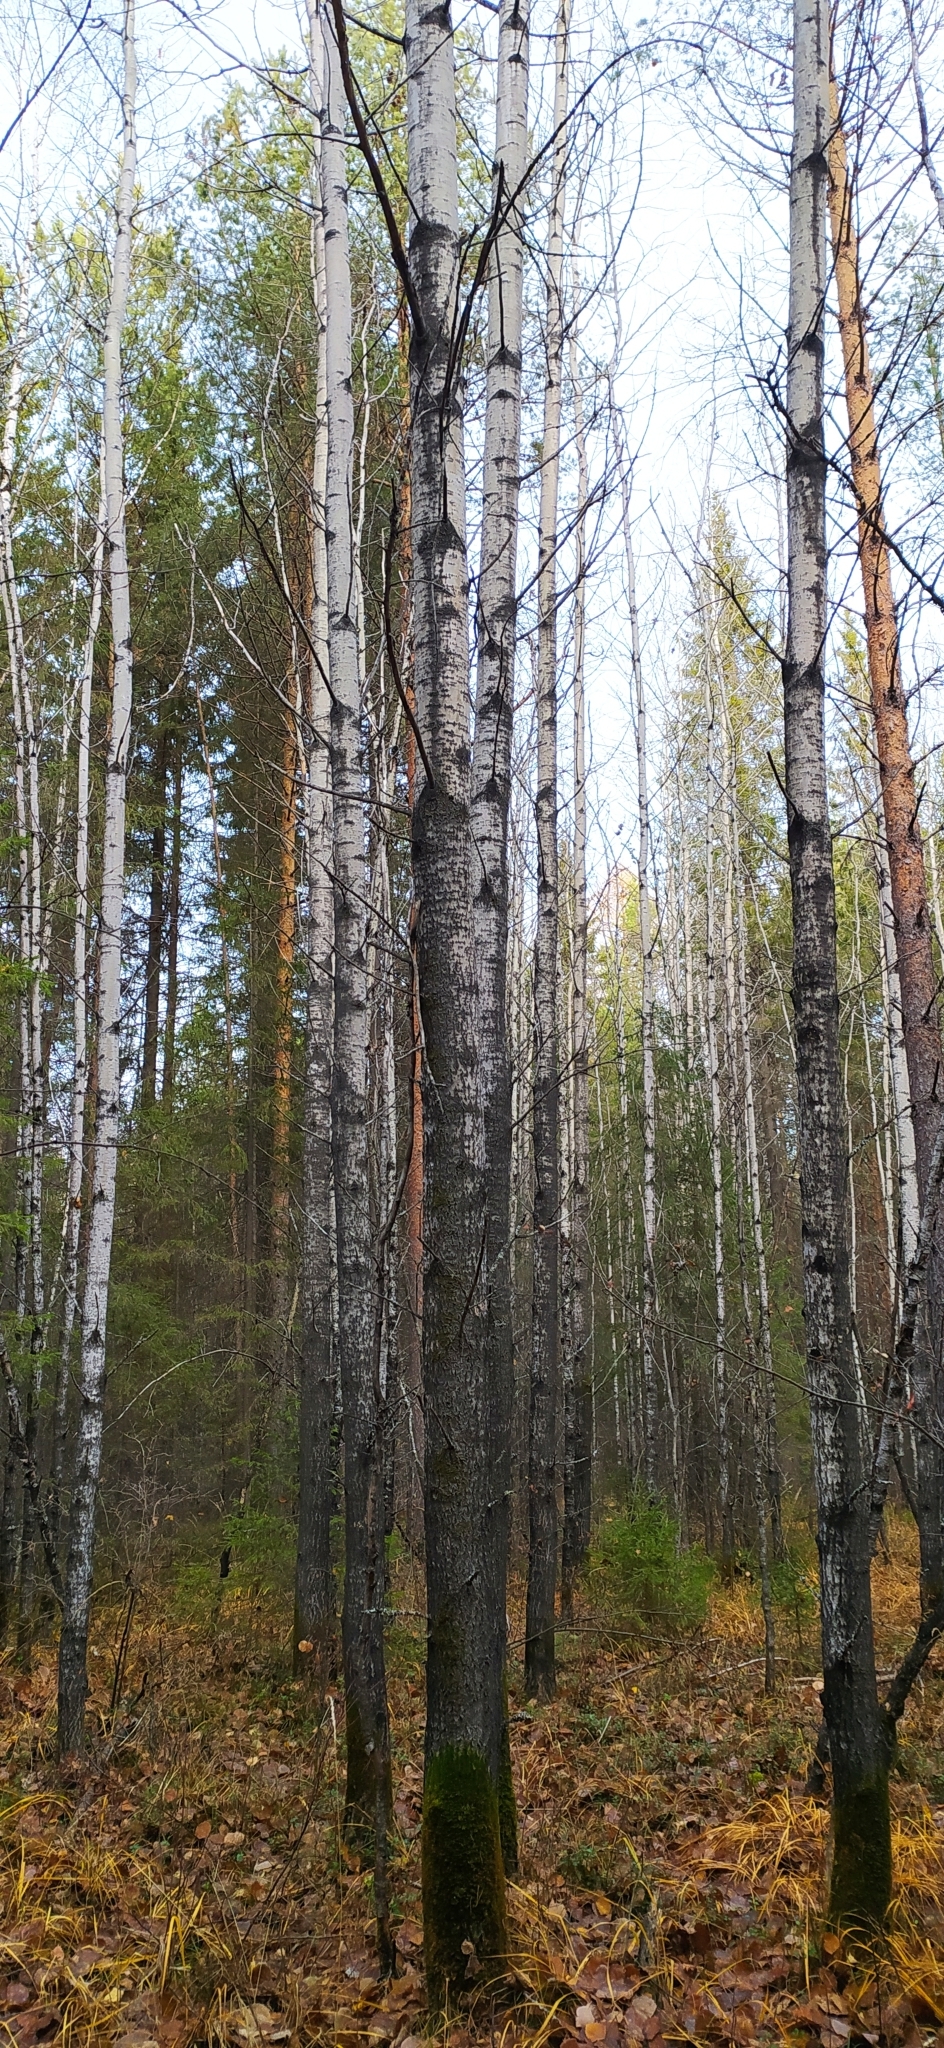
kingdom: Plantae
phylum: Tracheophyta
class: Magnoliopsida
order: Malpighiales
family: Salicaceae
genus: Populus
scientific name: Populus tremula
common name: European aspen
